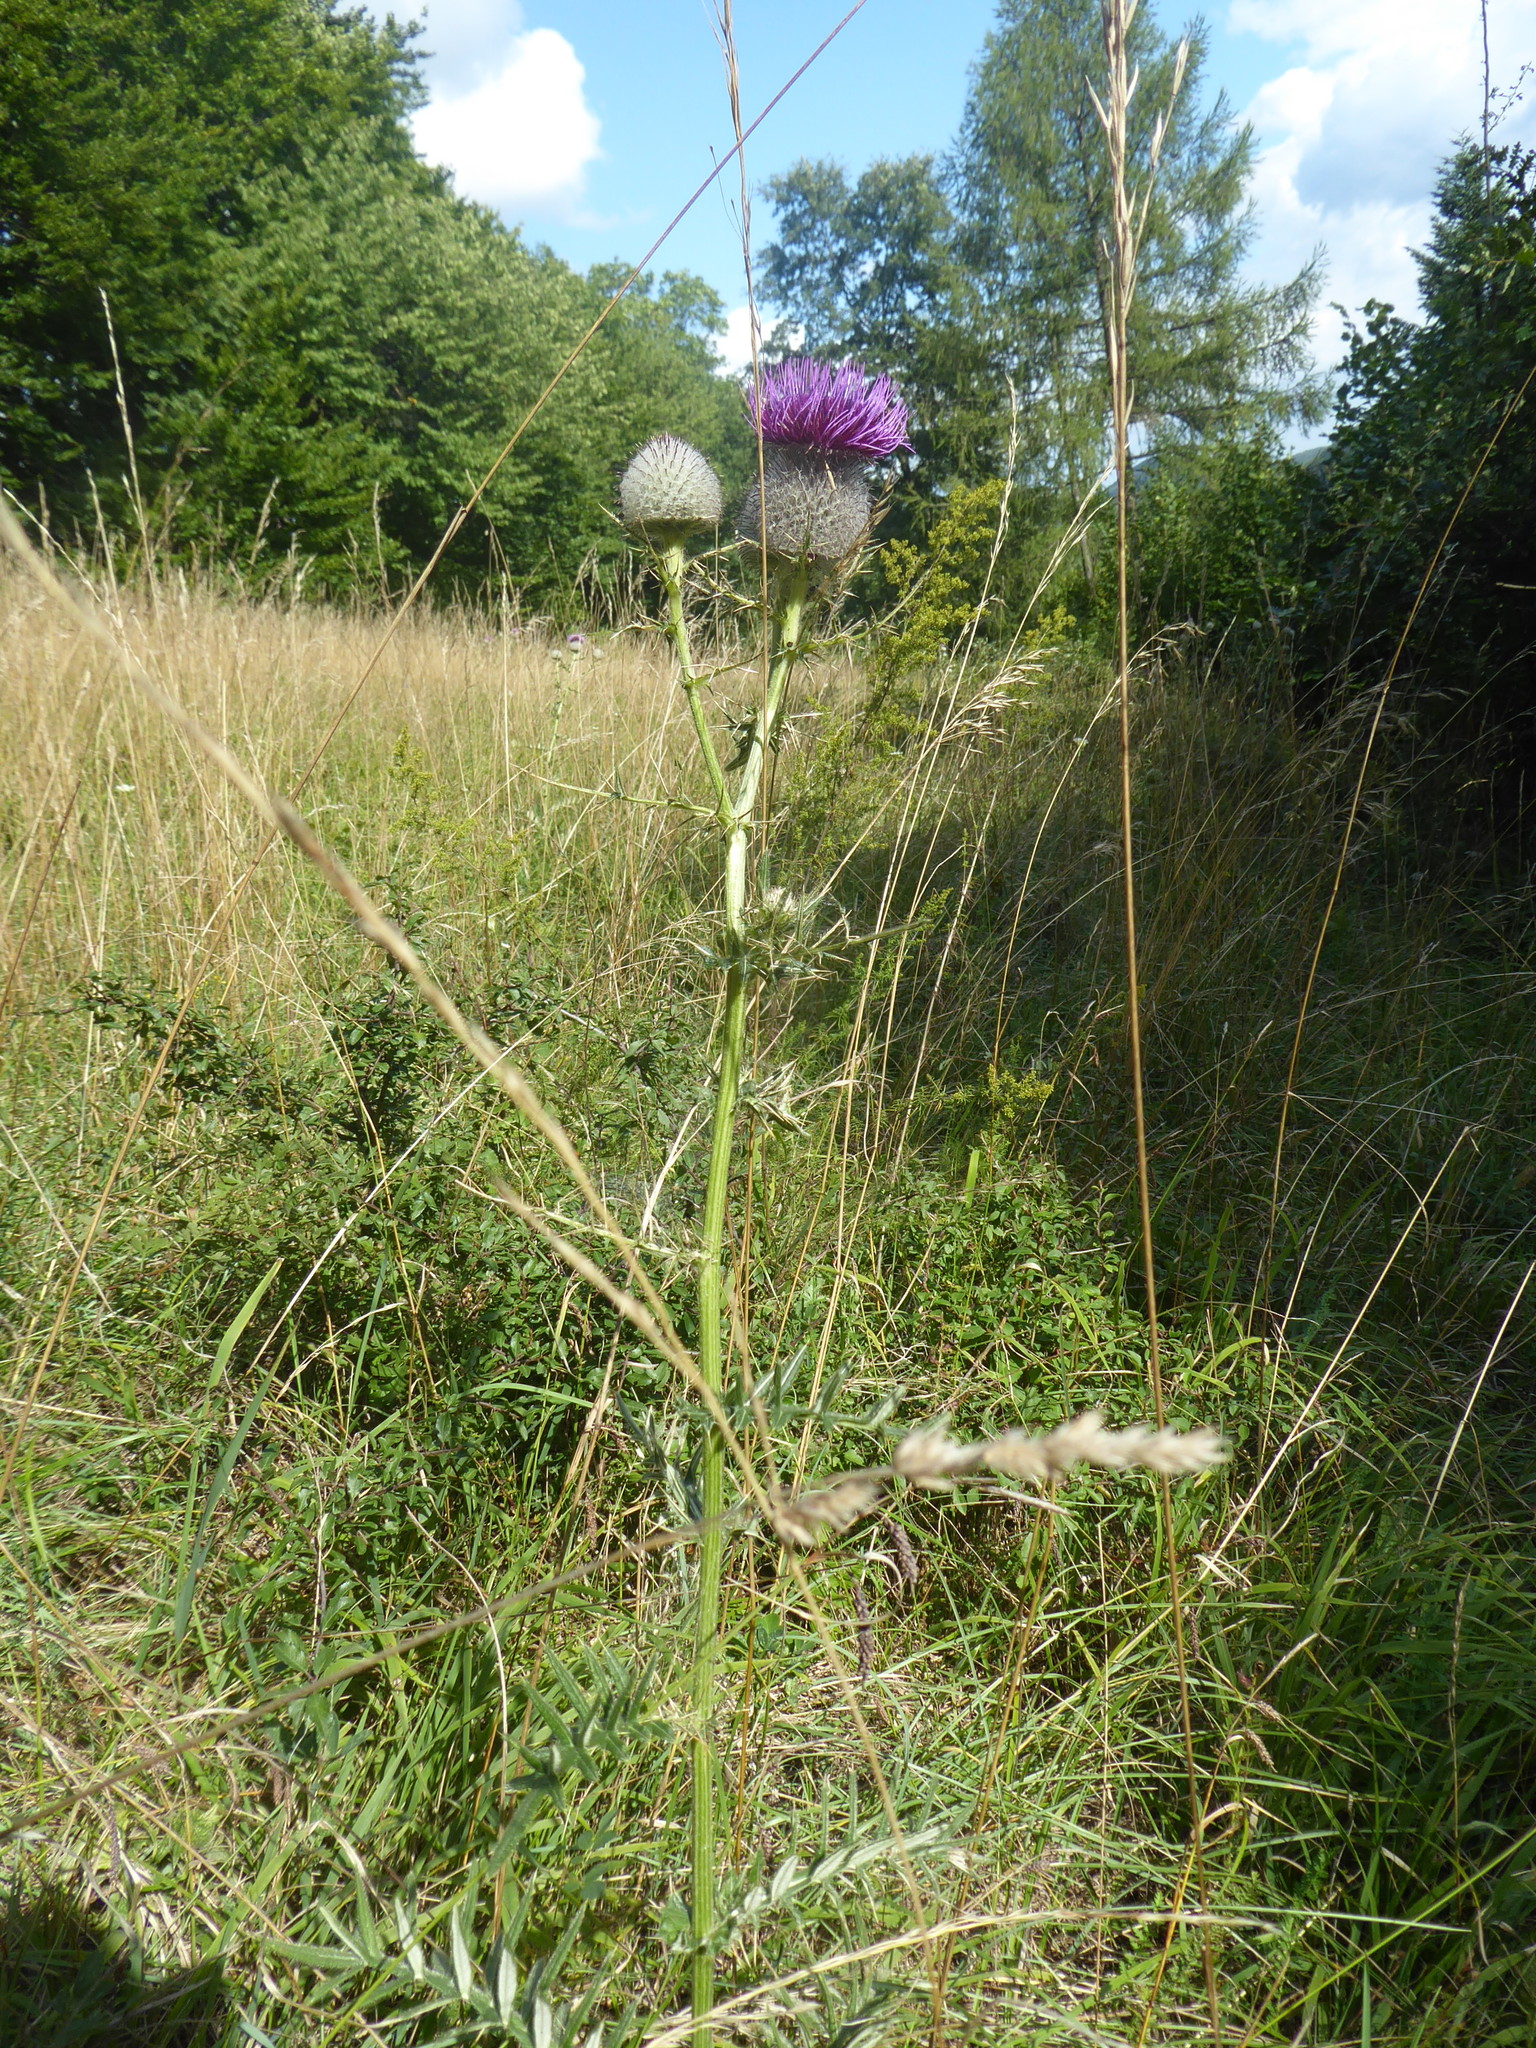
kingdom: Plantae
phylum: Tracheophyta
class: Magnoliopsida
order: Asterales
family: Asteraceae
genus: Lophiolepis
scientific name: Lophiolepis eriophora
